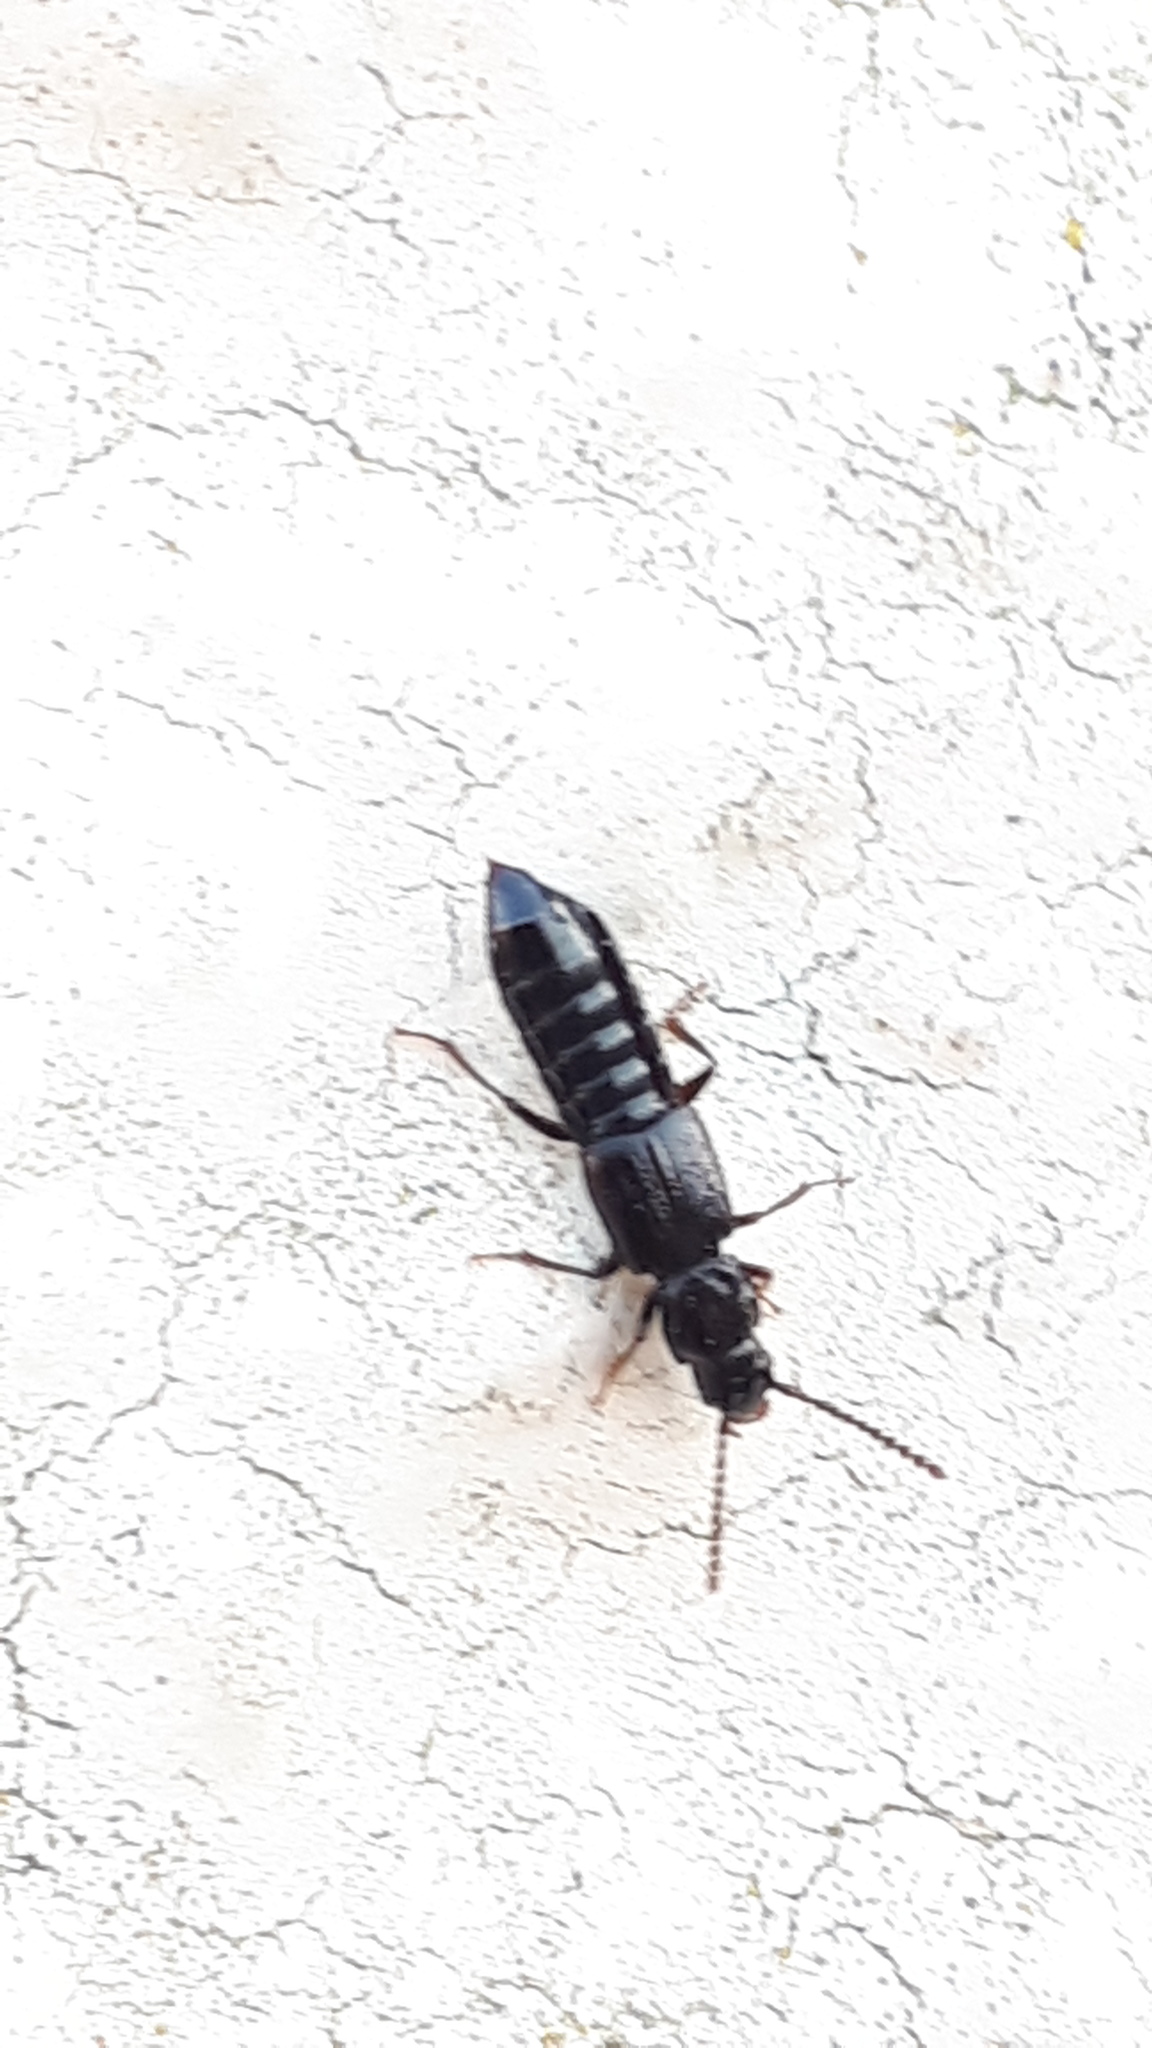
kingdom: Animalia
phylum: Arthropoda
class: Insecta
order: Coleoptera
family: Staphylinidae
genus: Coprophilus
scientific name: Coprophilus striatulus
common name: Rove beetle
